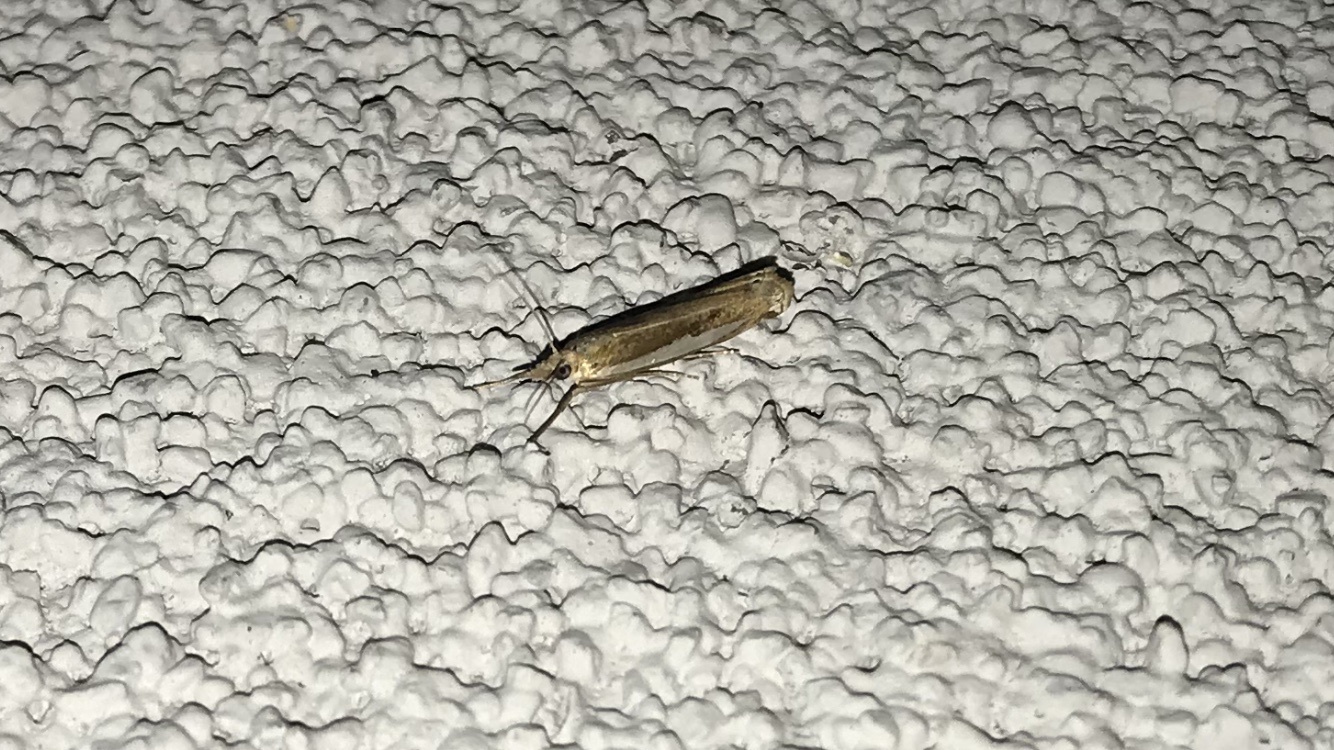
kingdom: Animalia
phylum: Arthropoda
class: Insecta
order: Lepidoptera
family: Crambidae
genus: Crambus
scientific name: Crambus praefectellus
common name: Common grass-veneer
